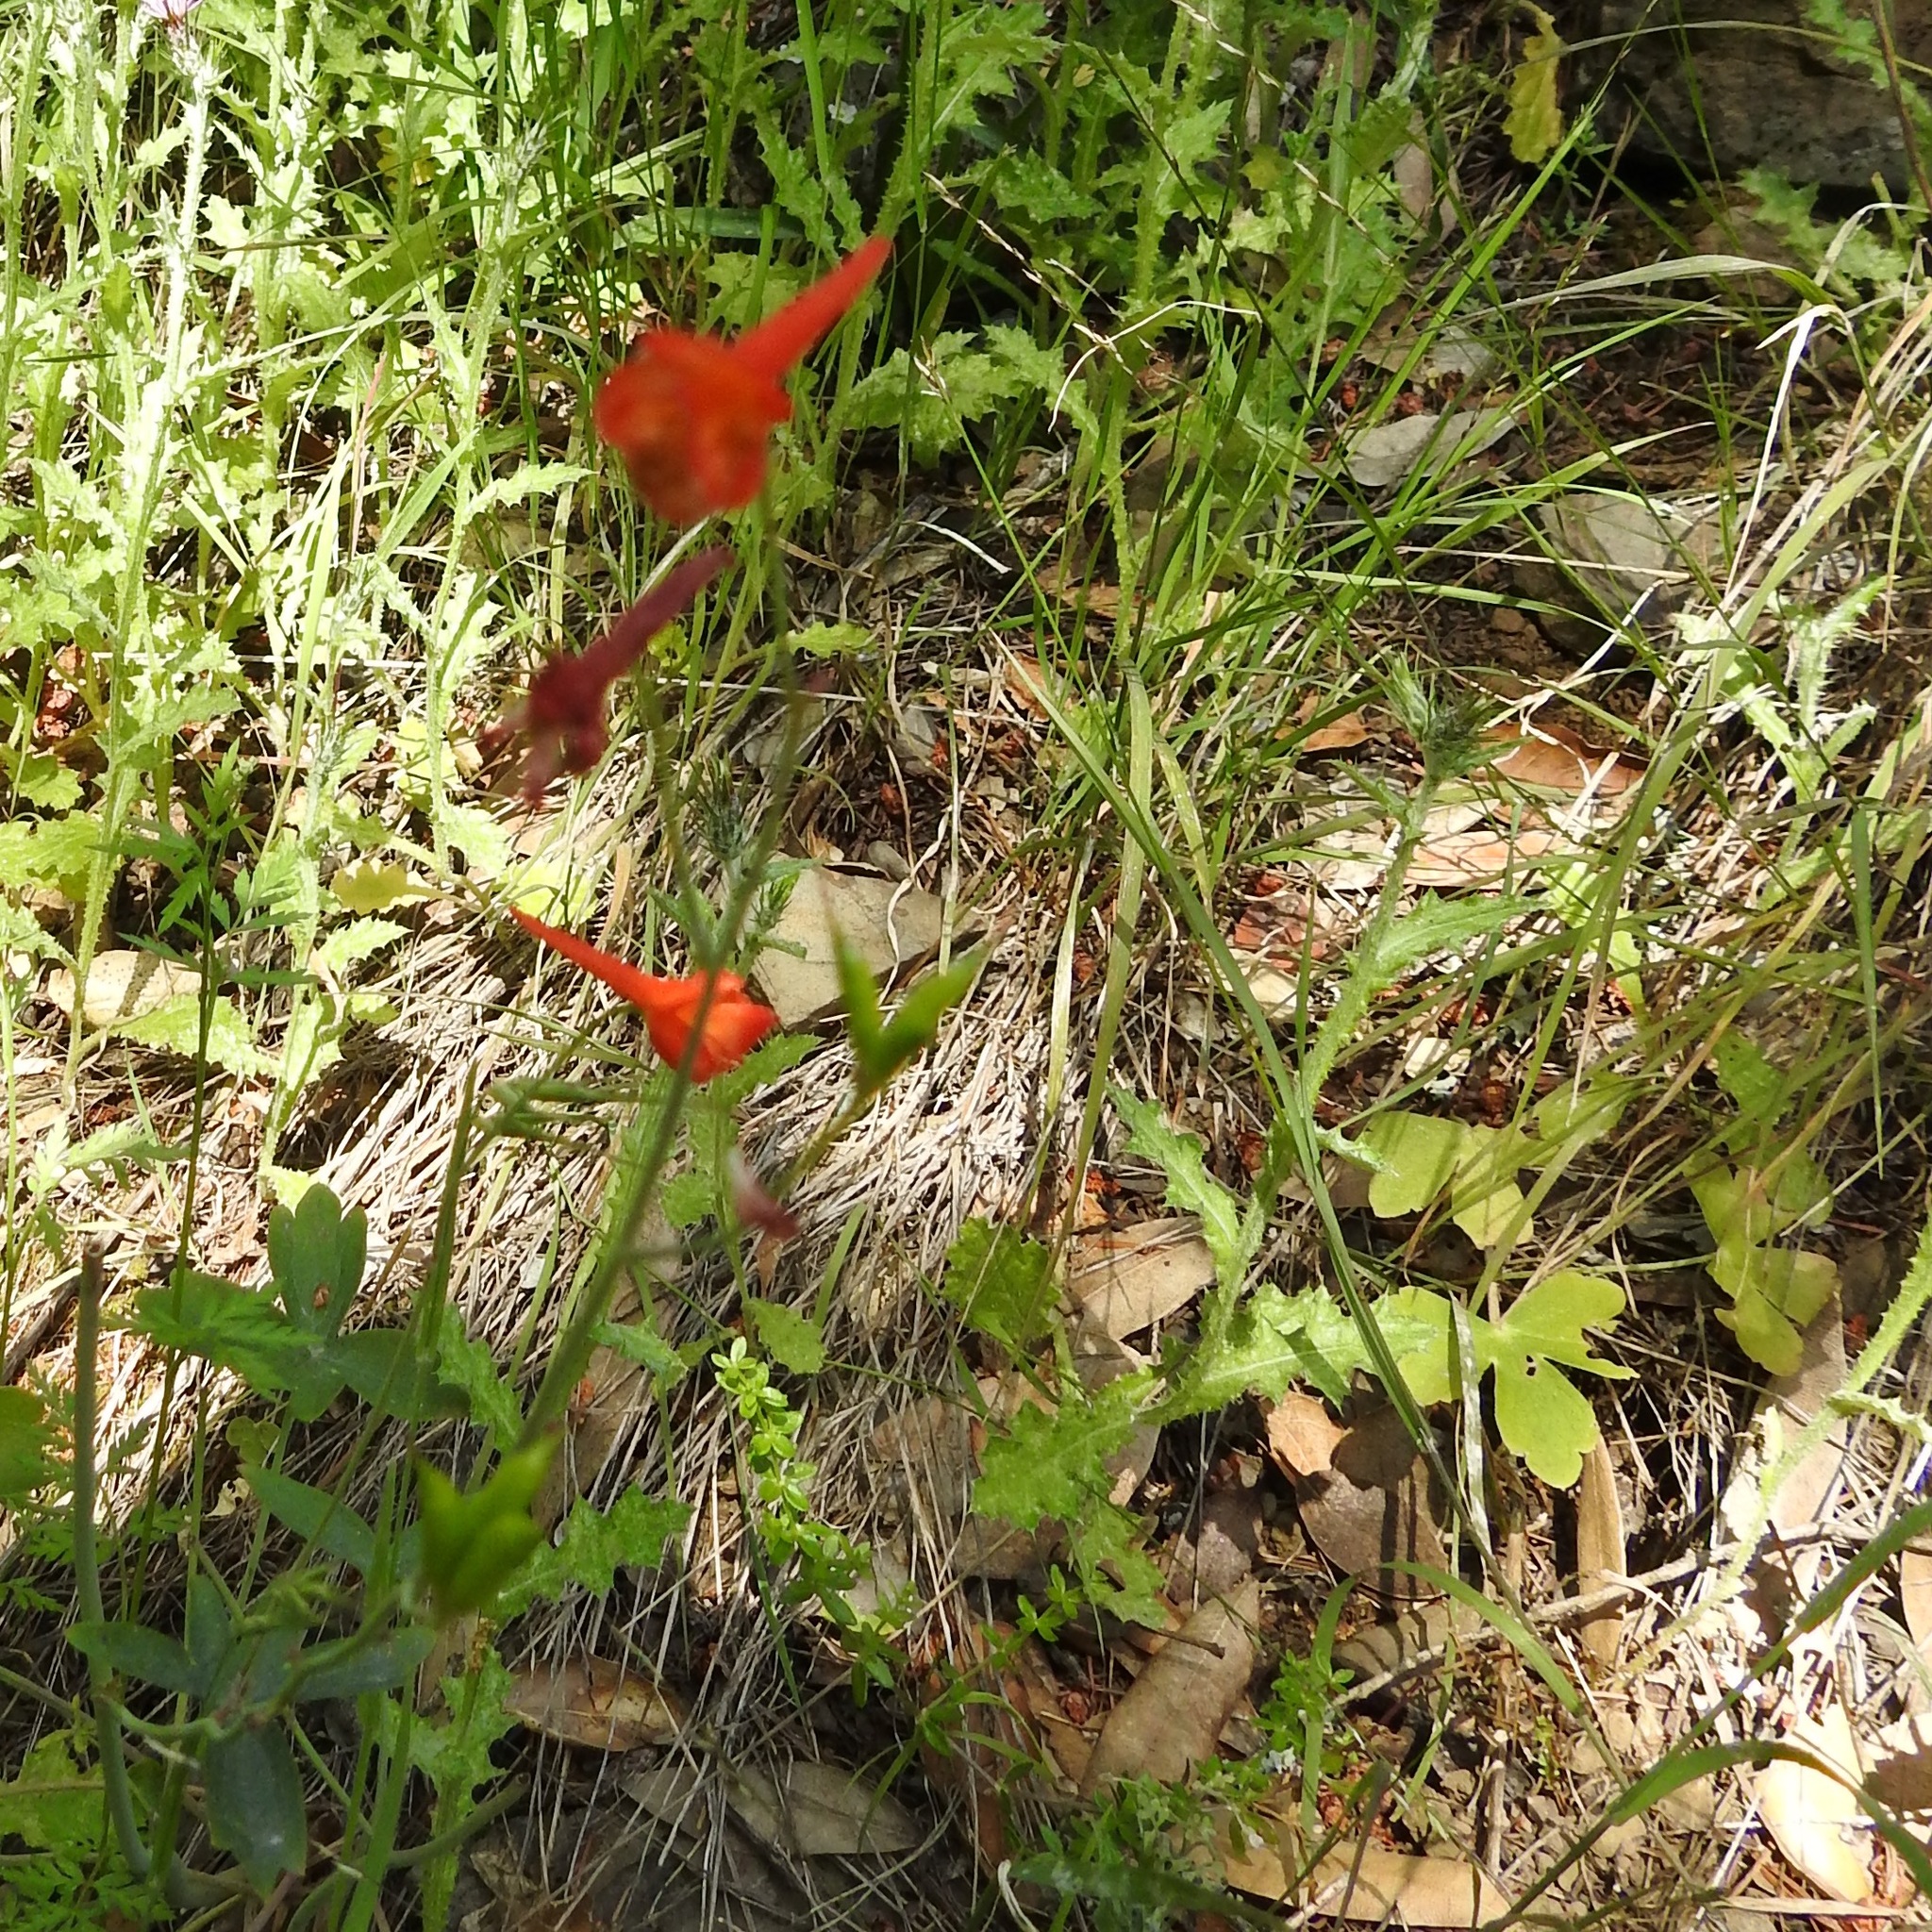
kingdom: Plantae
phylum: Tracheophyta
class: Magnoliopsida
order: Ranunculales
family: Ranunculaceae
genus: Delphinium
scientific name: Delphinium nudicaule
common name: Red larkspur
